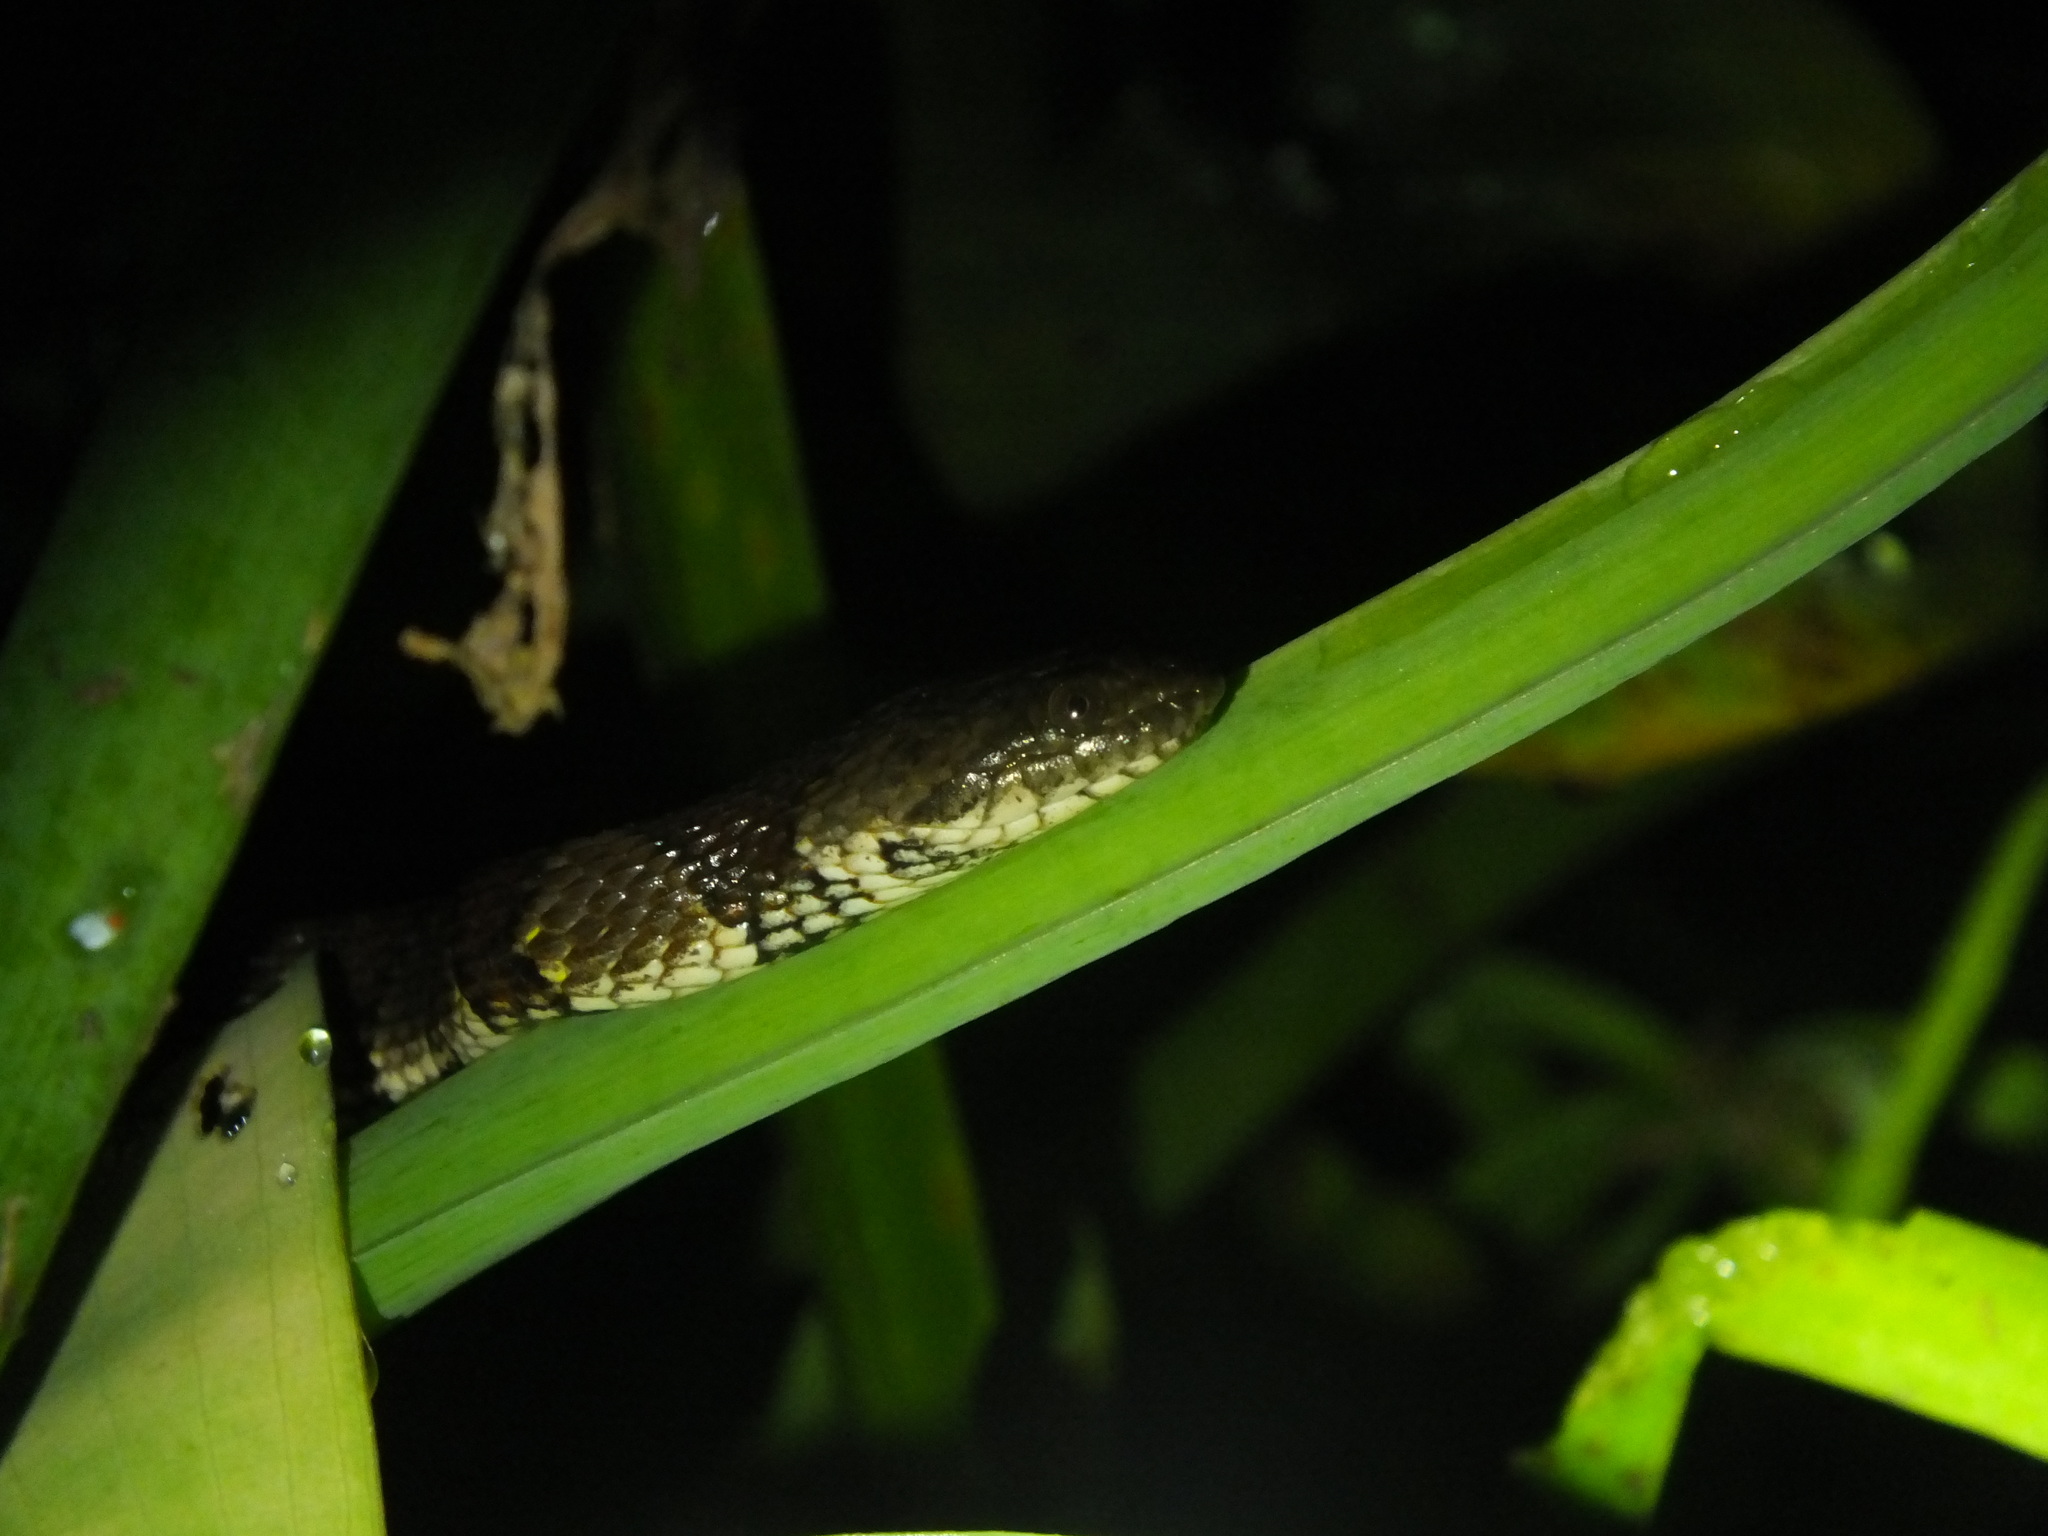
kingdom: Animalia
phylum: Chordata
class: Squamata
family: Colubridae
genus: Helicops
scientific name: Helicops angulatus
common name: Mountain keelback
